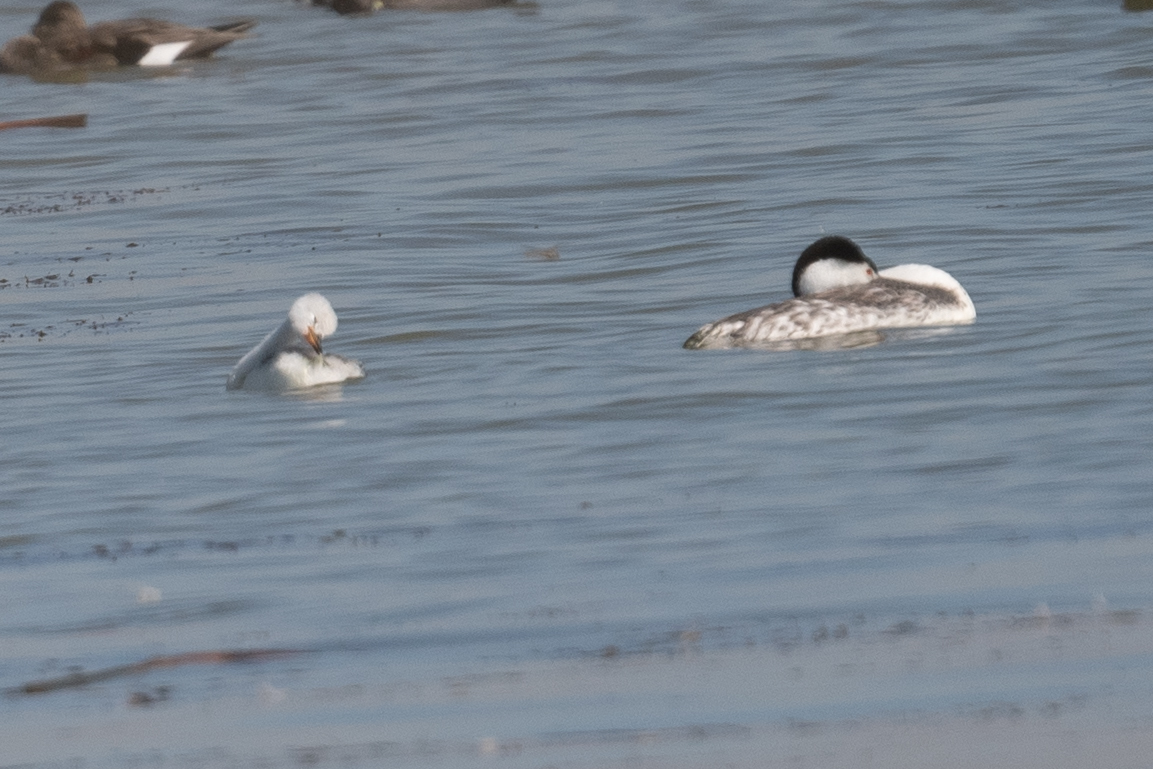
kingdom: Animalia
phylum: Chordata
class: Aves
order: Podicipediformes
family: Podicipedidae
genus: Aechmophorus
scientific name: Aechmophorus clarkii
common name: Clark's grebe
